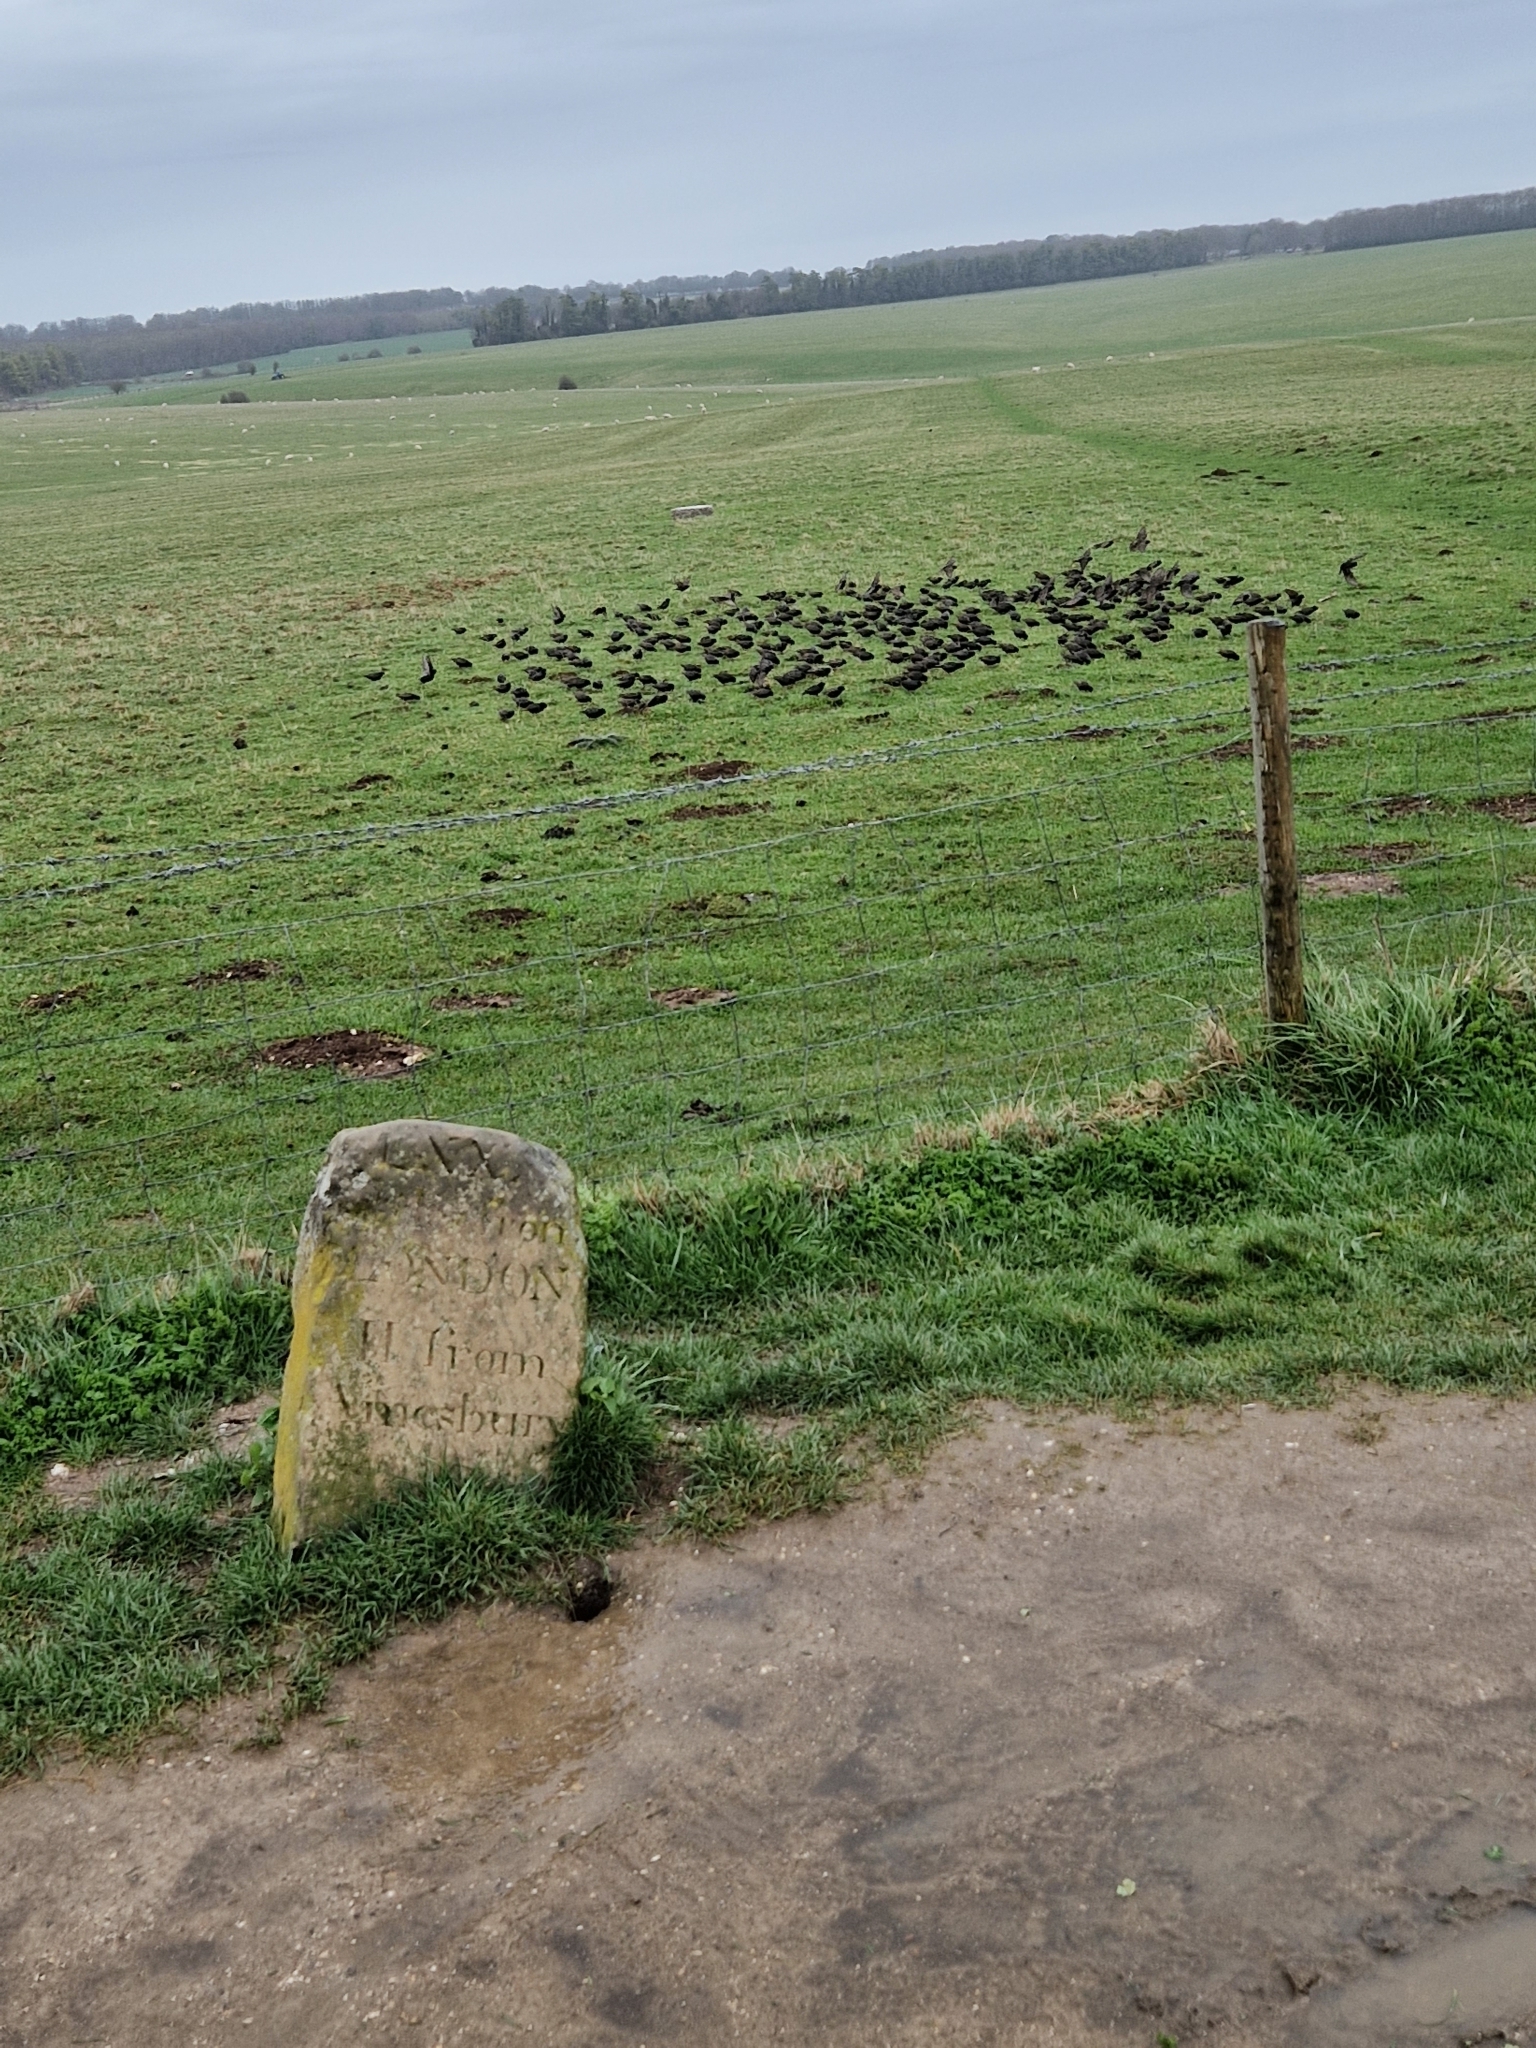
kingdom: Animalia
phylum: Chordata
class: Aves
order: Passeriformes
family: Sturnidae
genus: Sturnus
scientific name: Sturnus vulgaris
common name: Common starling
